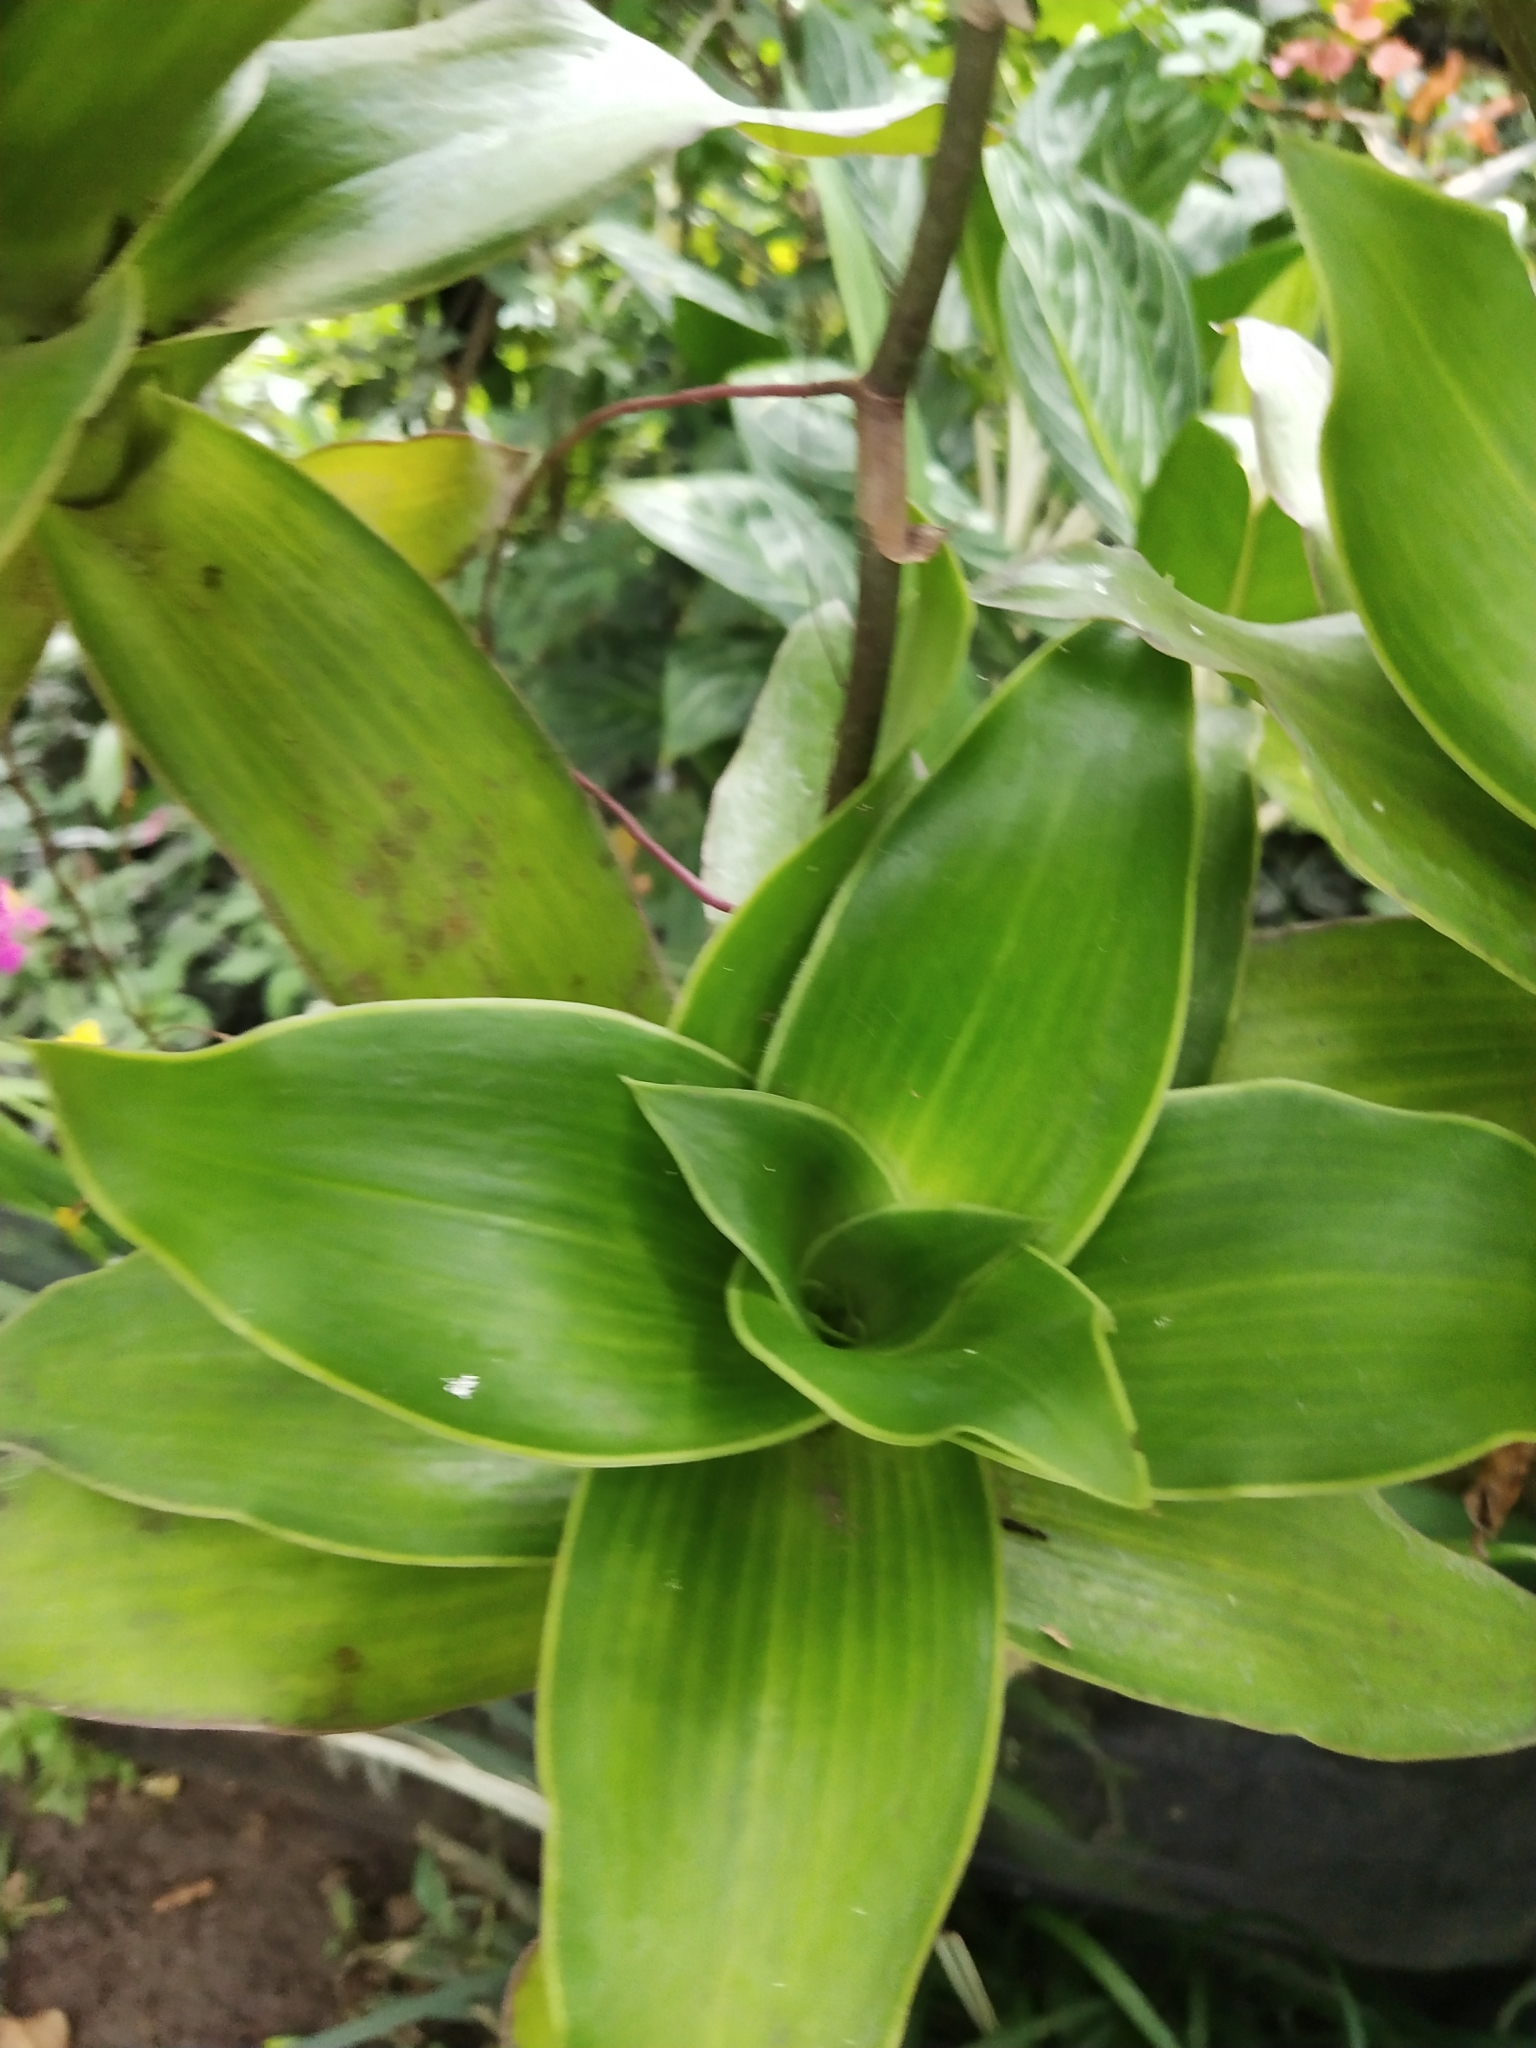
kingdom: Plantae
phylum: Tracheophyta
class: Liliopsida
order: Commelinales
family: Commelinaceae
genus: Callisia
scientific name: Callisia fragrans
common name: Basketplant
